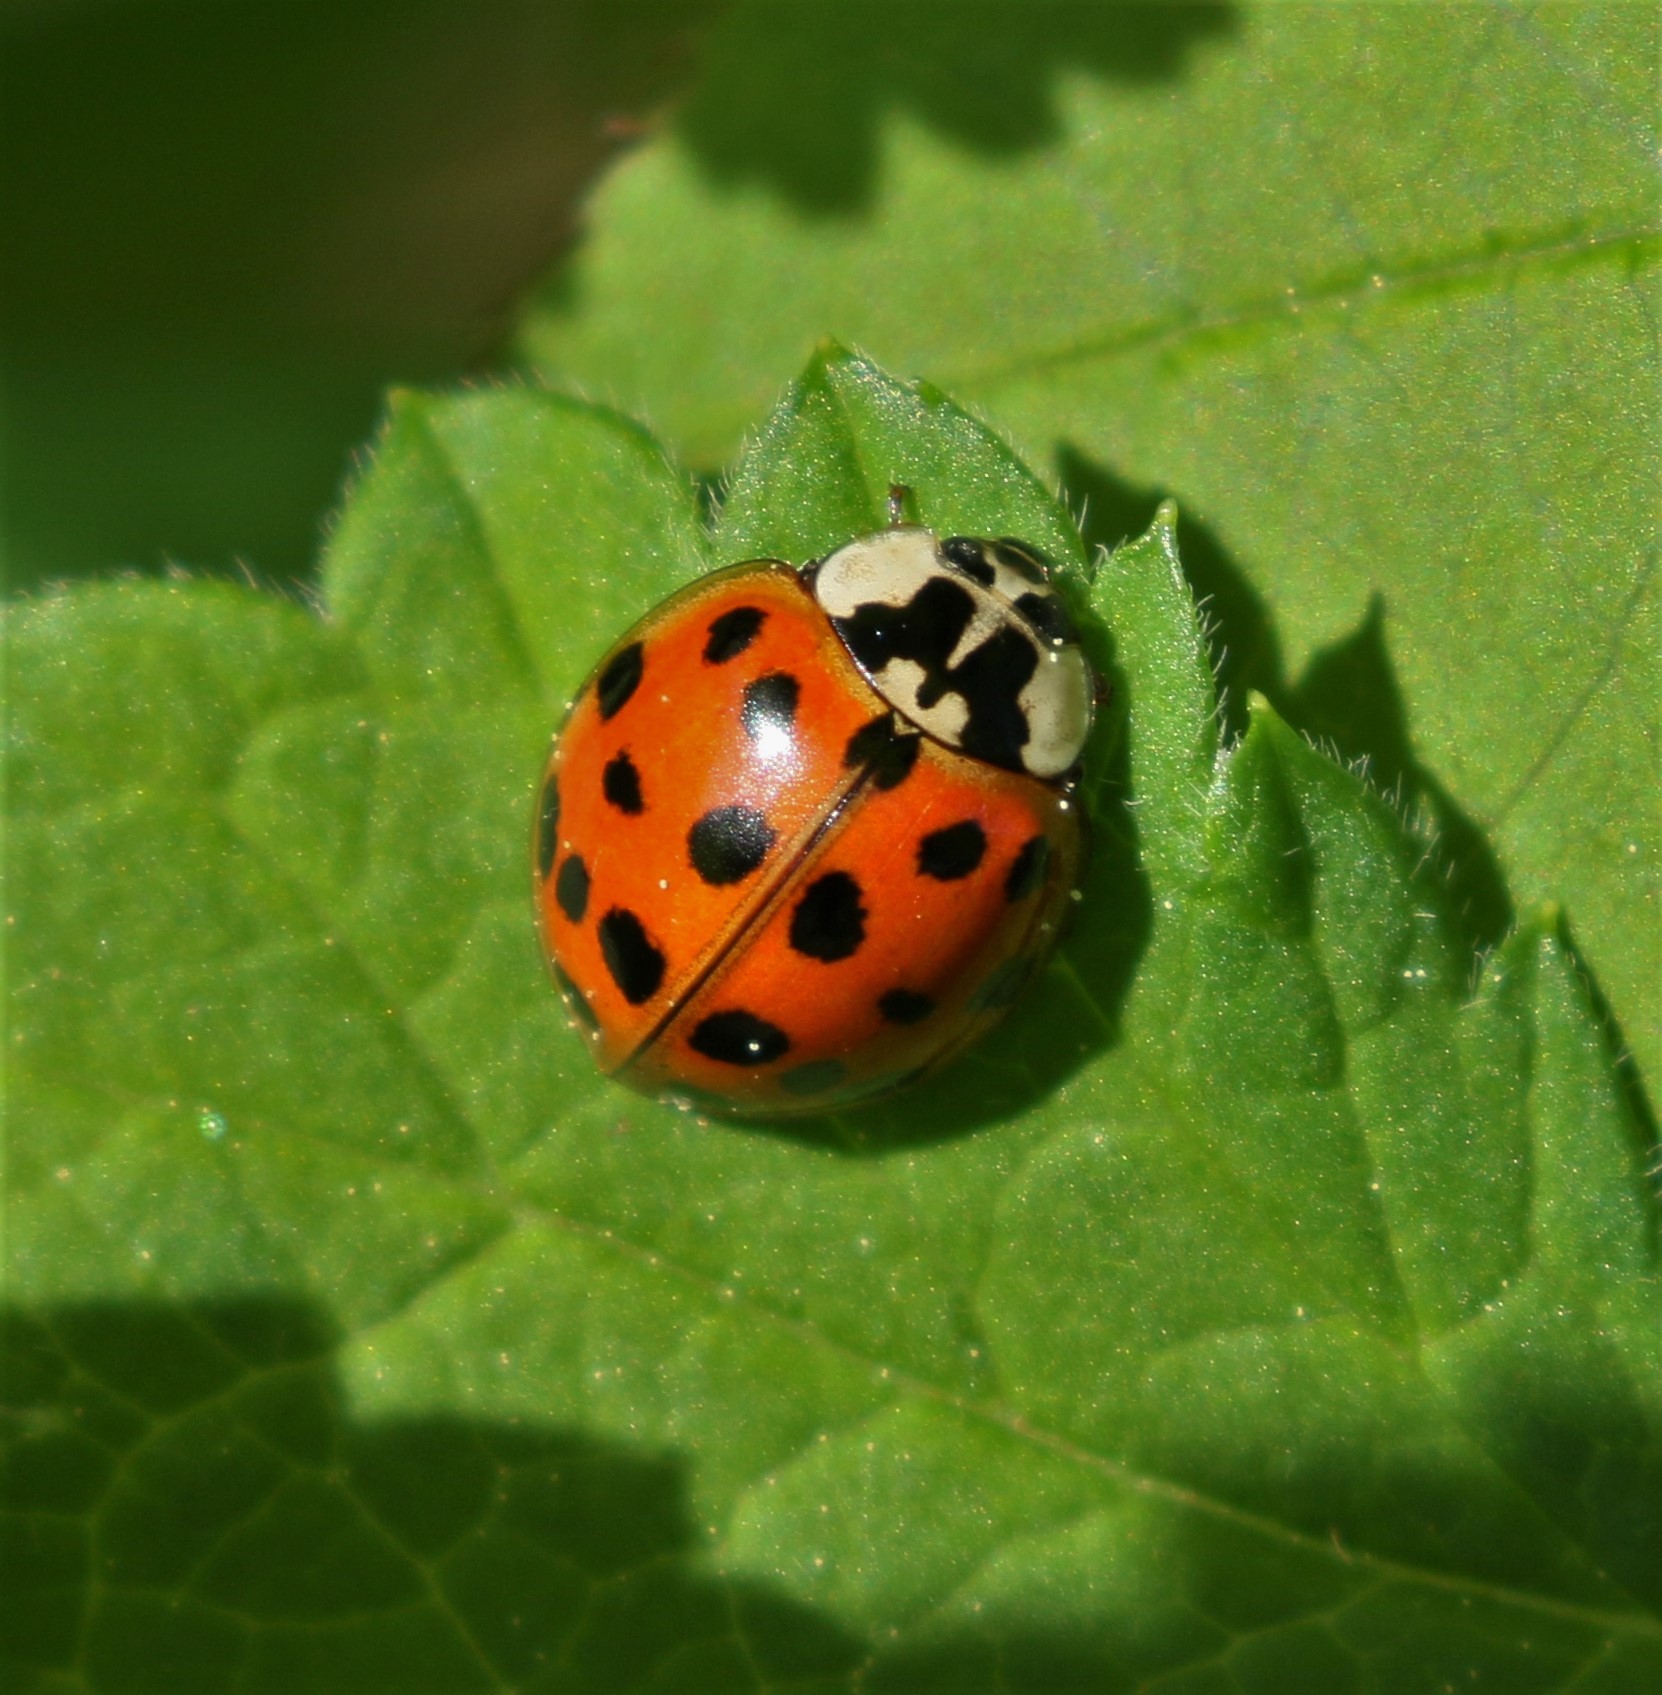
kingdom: Animalia
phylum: Arthropoda
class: Insecta
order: Coleoptera
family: Coccinellidae
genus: Harmonia
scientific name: Harmonia axyridis
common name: Harlequin ladybird
